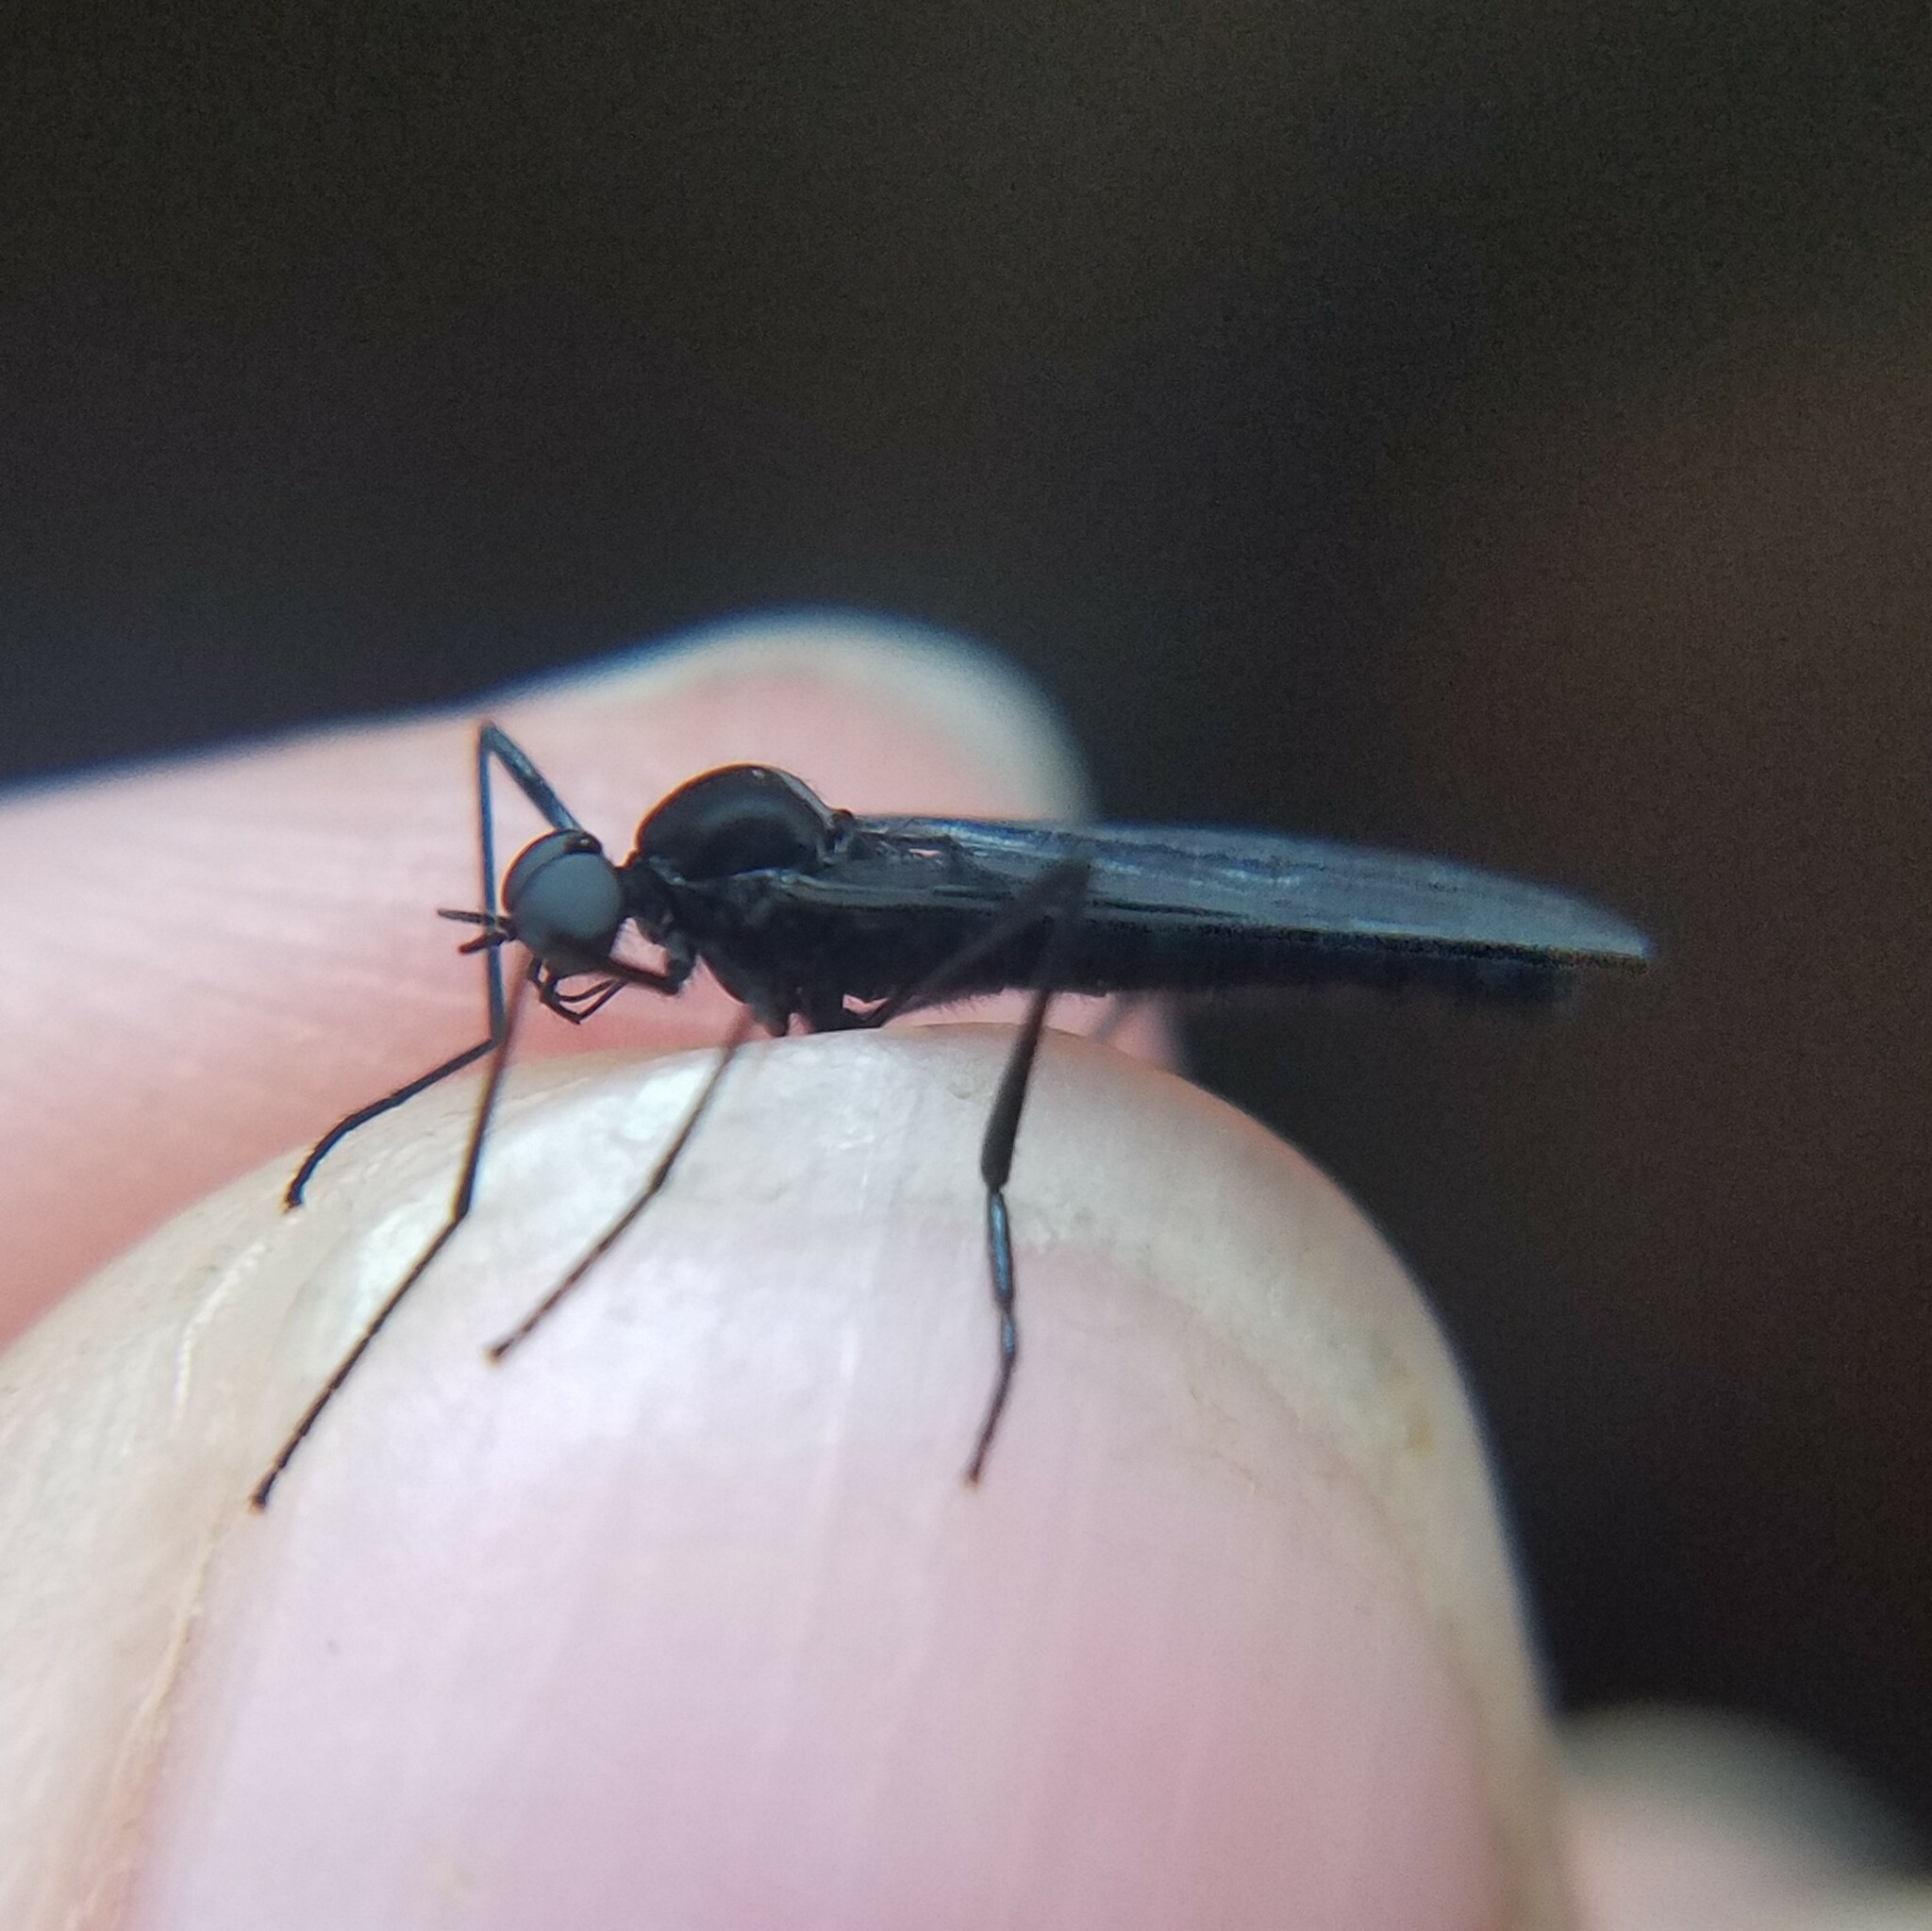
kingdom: Animalia
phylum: Arthropoda
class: Insecta
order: Diptera
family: Bibionidae
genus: Penthetria
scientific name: Penthetria heteroptera
